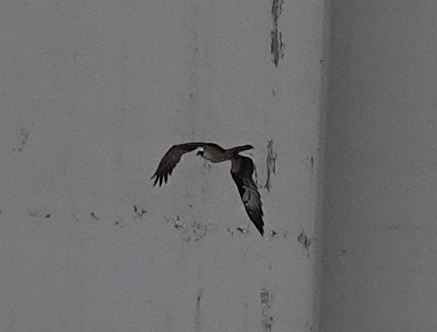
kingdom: Animalia
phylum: Chordata
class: Aves
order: Accipitriformes
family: Pandionidae
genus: Pandion
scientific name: Pandion haliaetus
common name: Osprey
